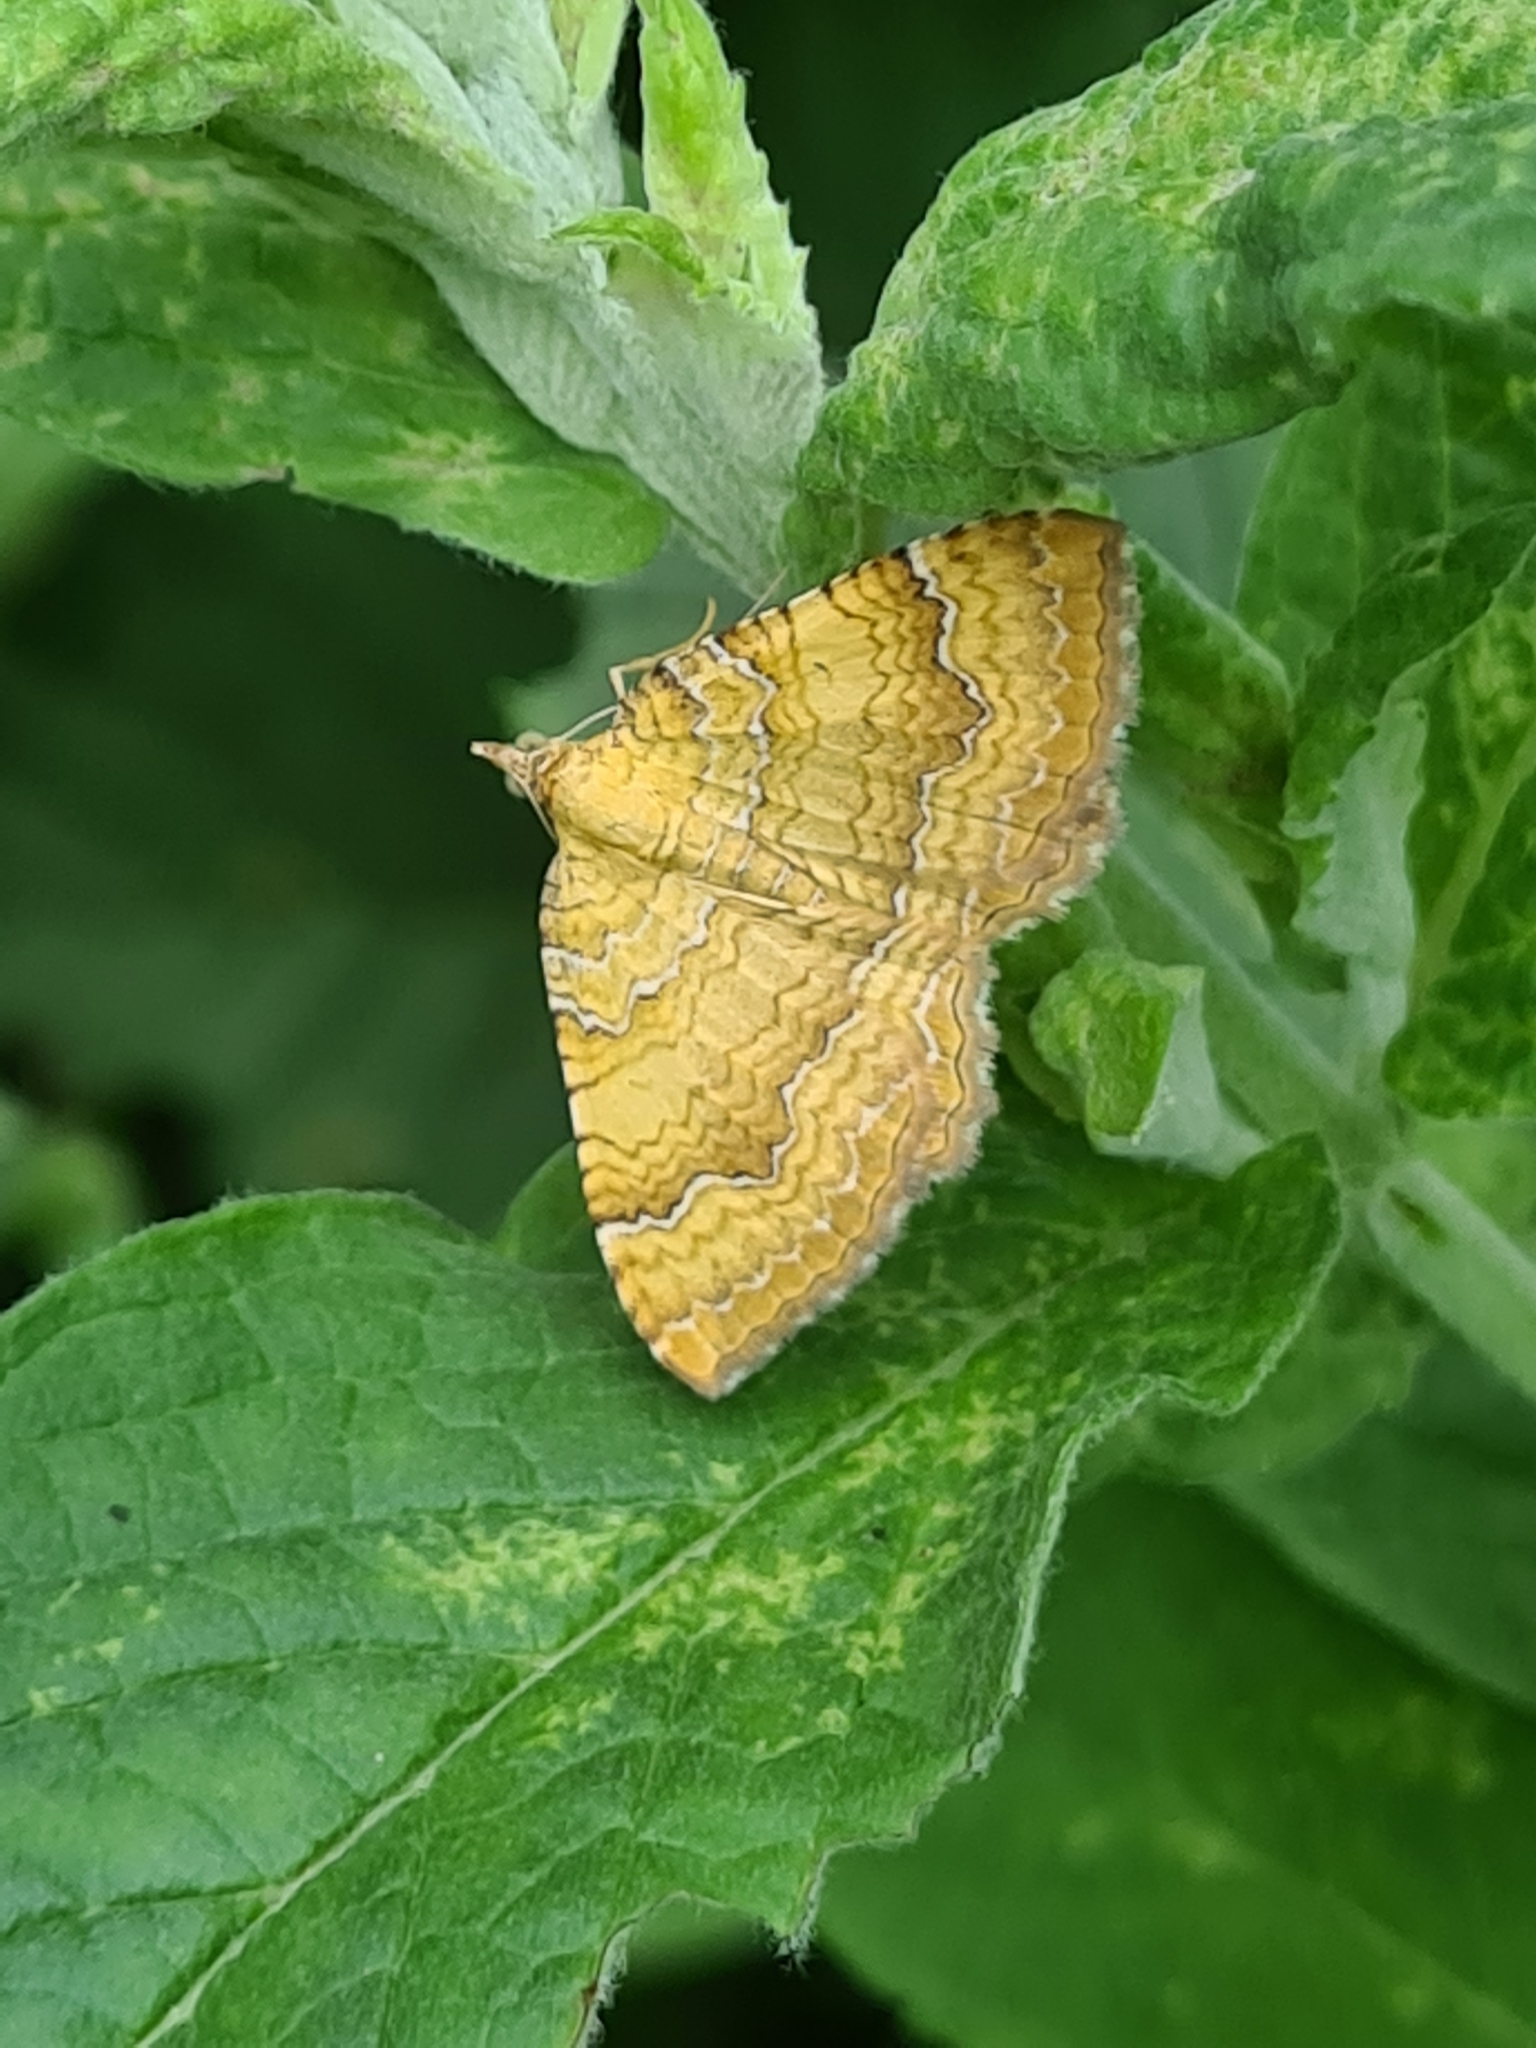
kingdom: Animalia
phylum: Arthropoda
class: Insecta
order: Lepidoptera
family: Geometridae
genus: Camptogramma
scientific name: Camptogramma bilineata
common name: Yellow shell
